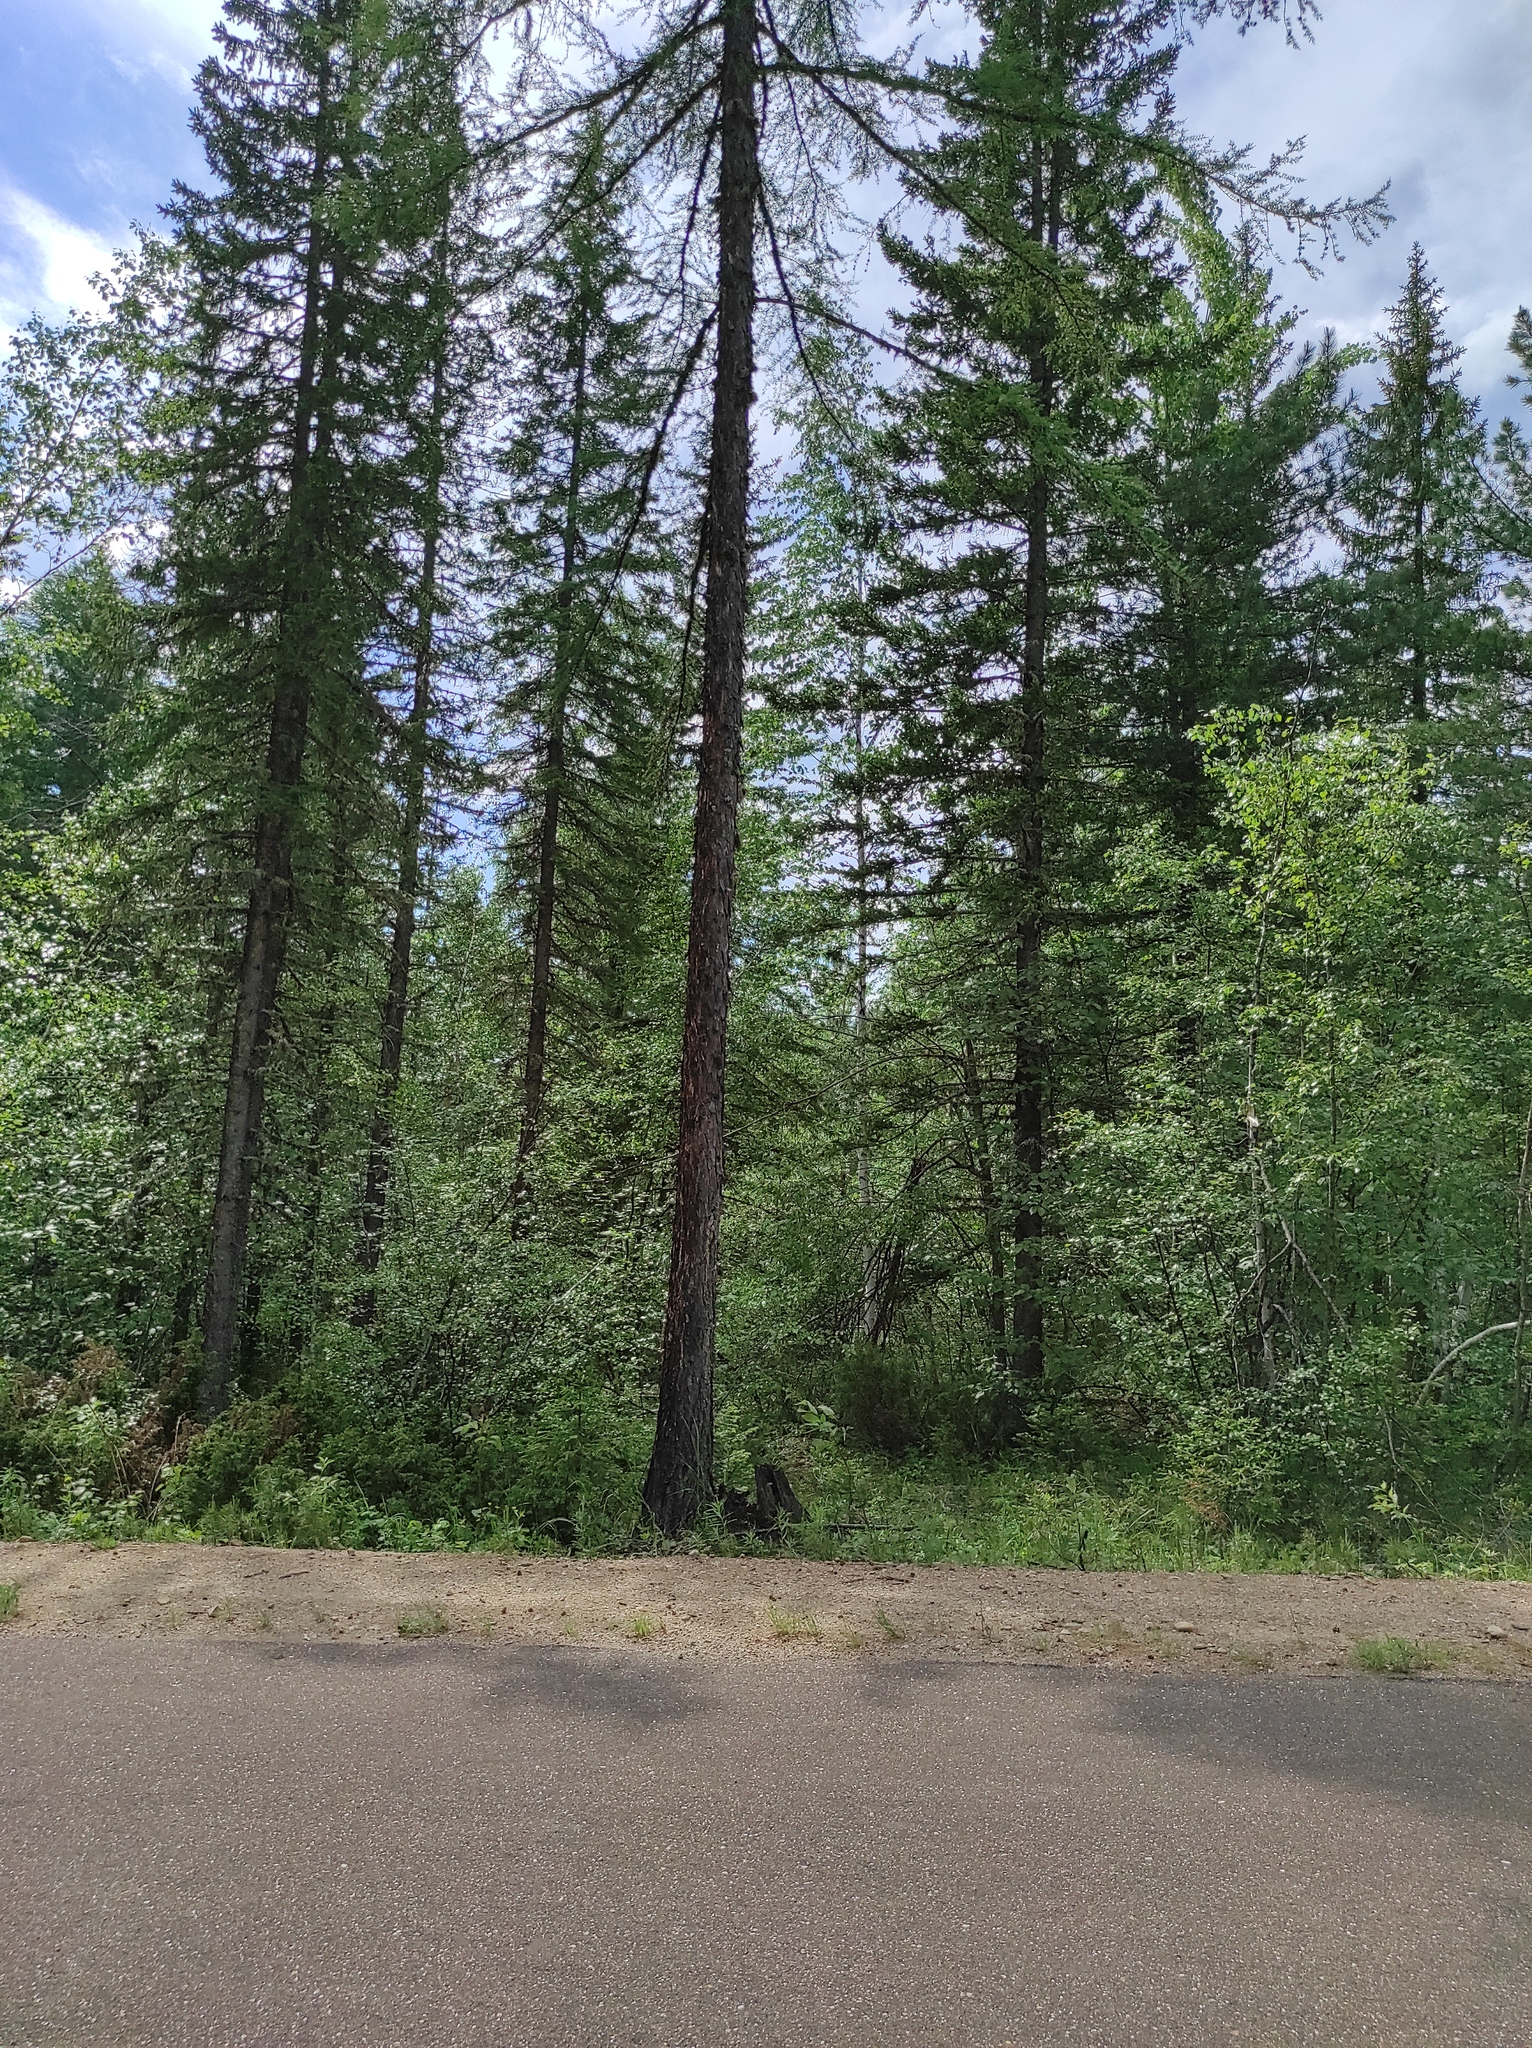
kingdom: Plantae
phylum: Tracheophyta
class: Pinopsida
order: Pinales
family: Pinaceae
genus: Picea
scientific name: Picea obovata
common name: Siberian spruce
